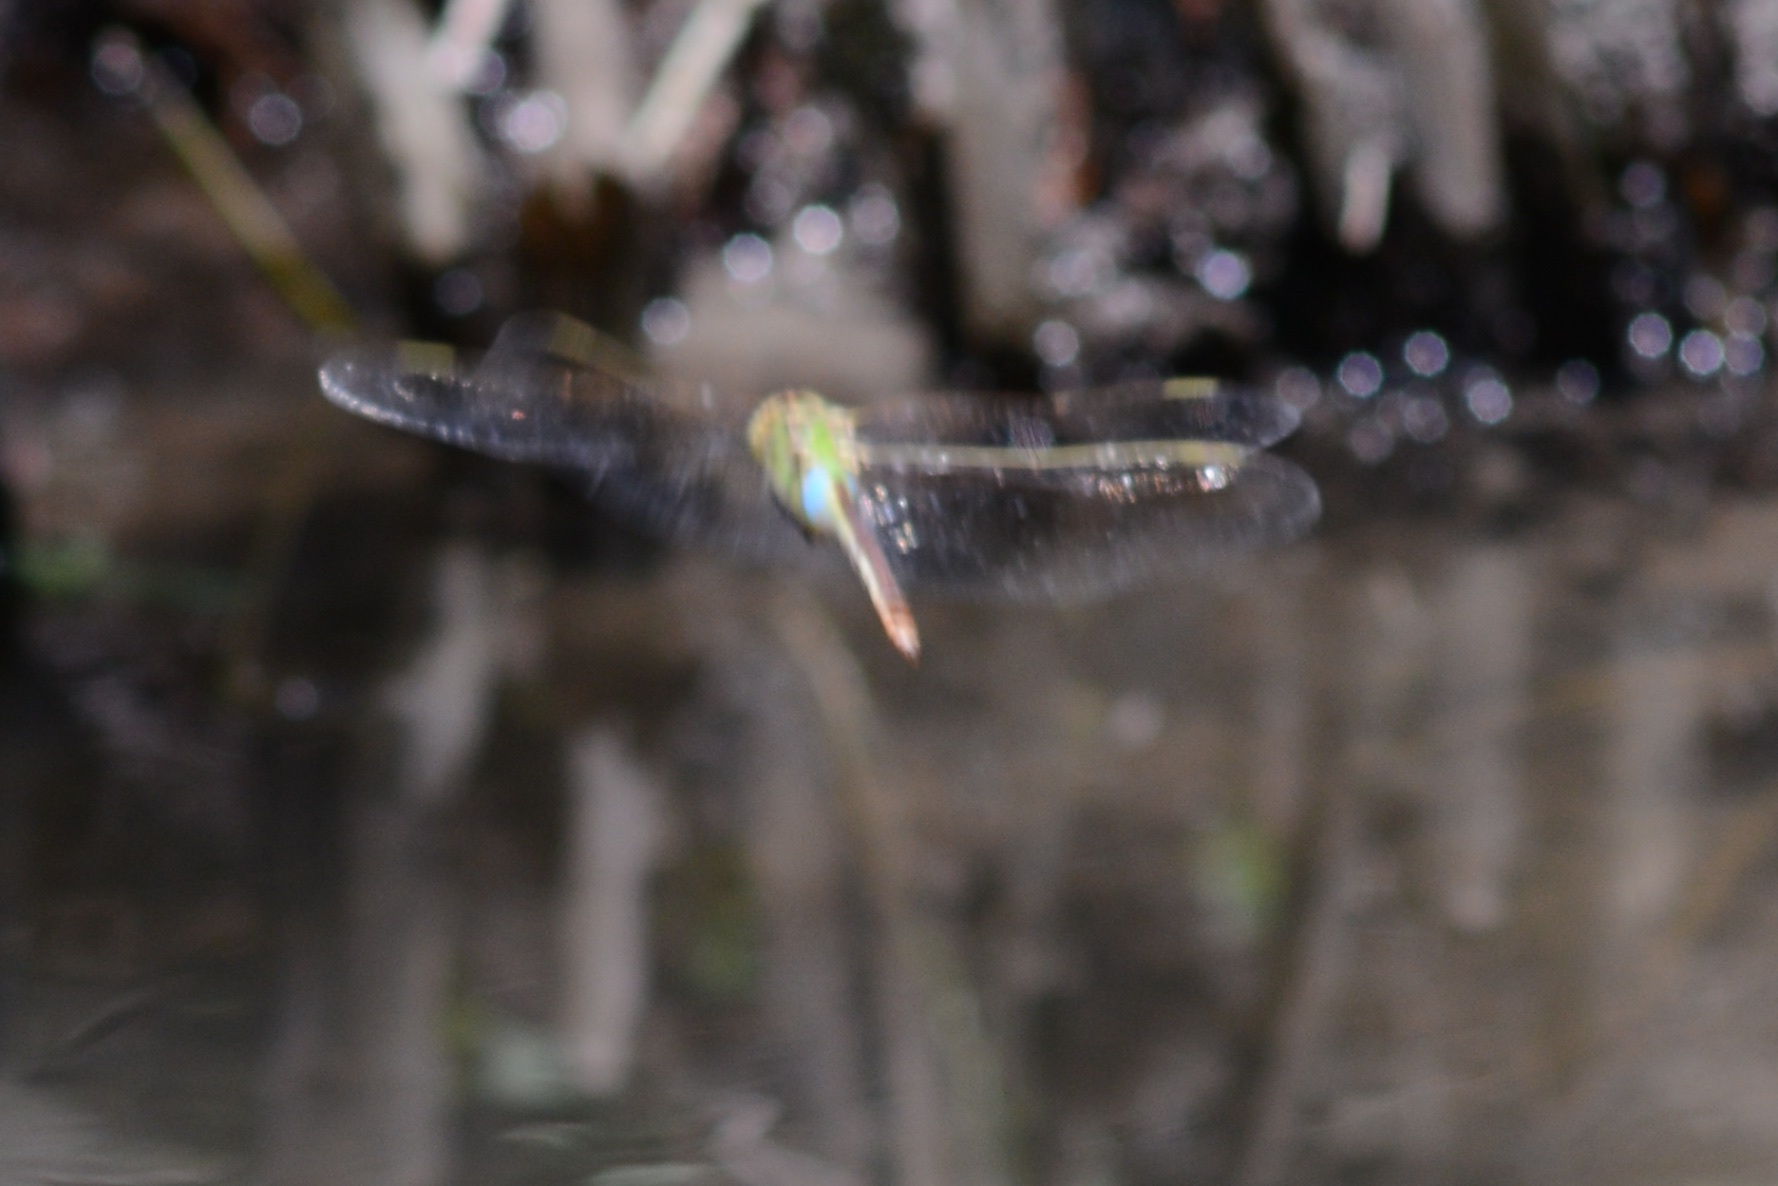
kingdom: Animalia
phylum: Arthropoda
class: Insecta
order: Odonata
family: Aeshnidae
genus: Anax
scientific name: Anax junius
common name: Common green darner
